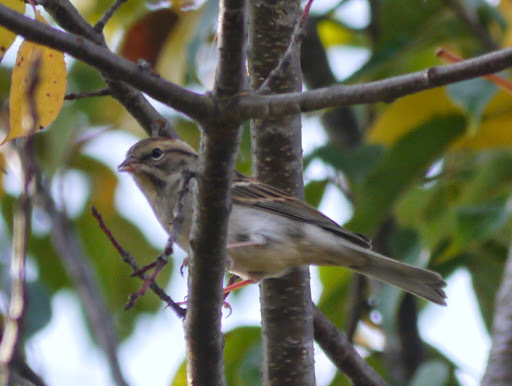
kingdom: Animalia
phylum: Chordata
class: Aves
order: Passeriformes
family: Passerellidae
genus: Spizella
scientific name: Spizella passerina
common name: Chipping sparrow
